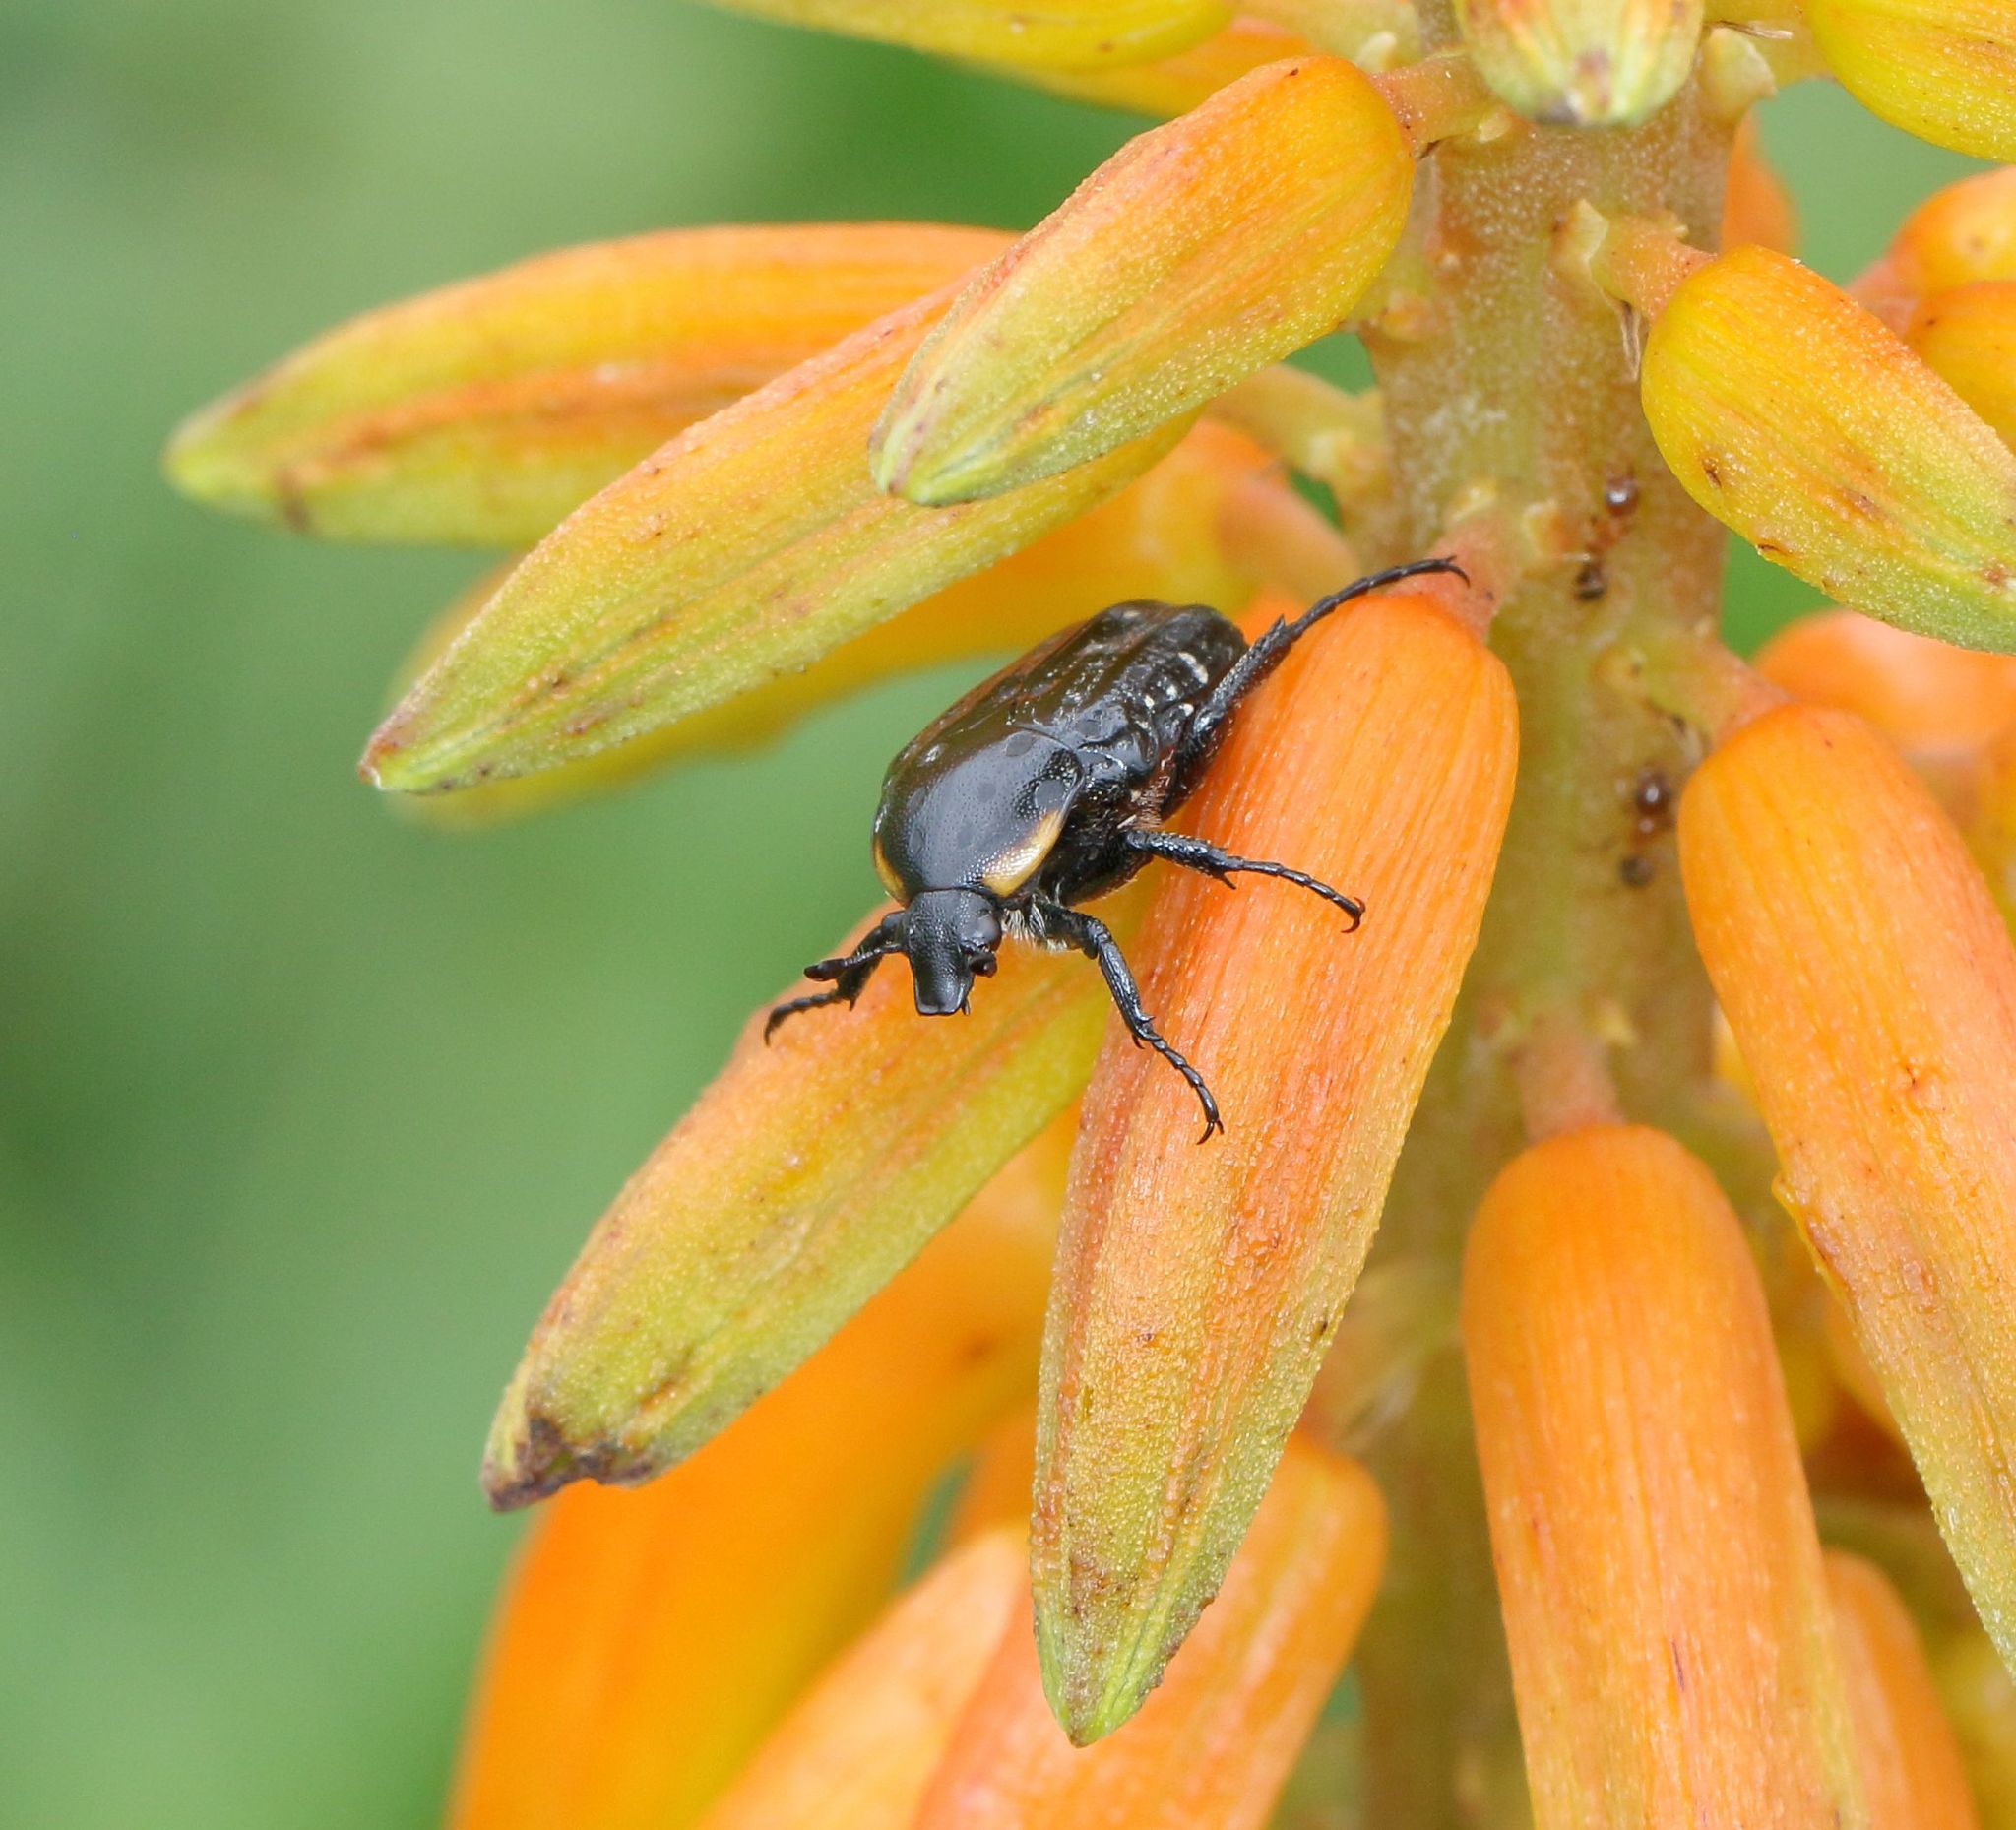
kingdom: Animalia
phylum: Arthropoda
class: Insecta
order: Coleoptera
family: Scarabaeidae
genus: Oxythyrea
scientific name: Oxythyrea
